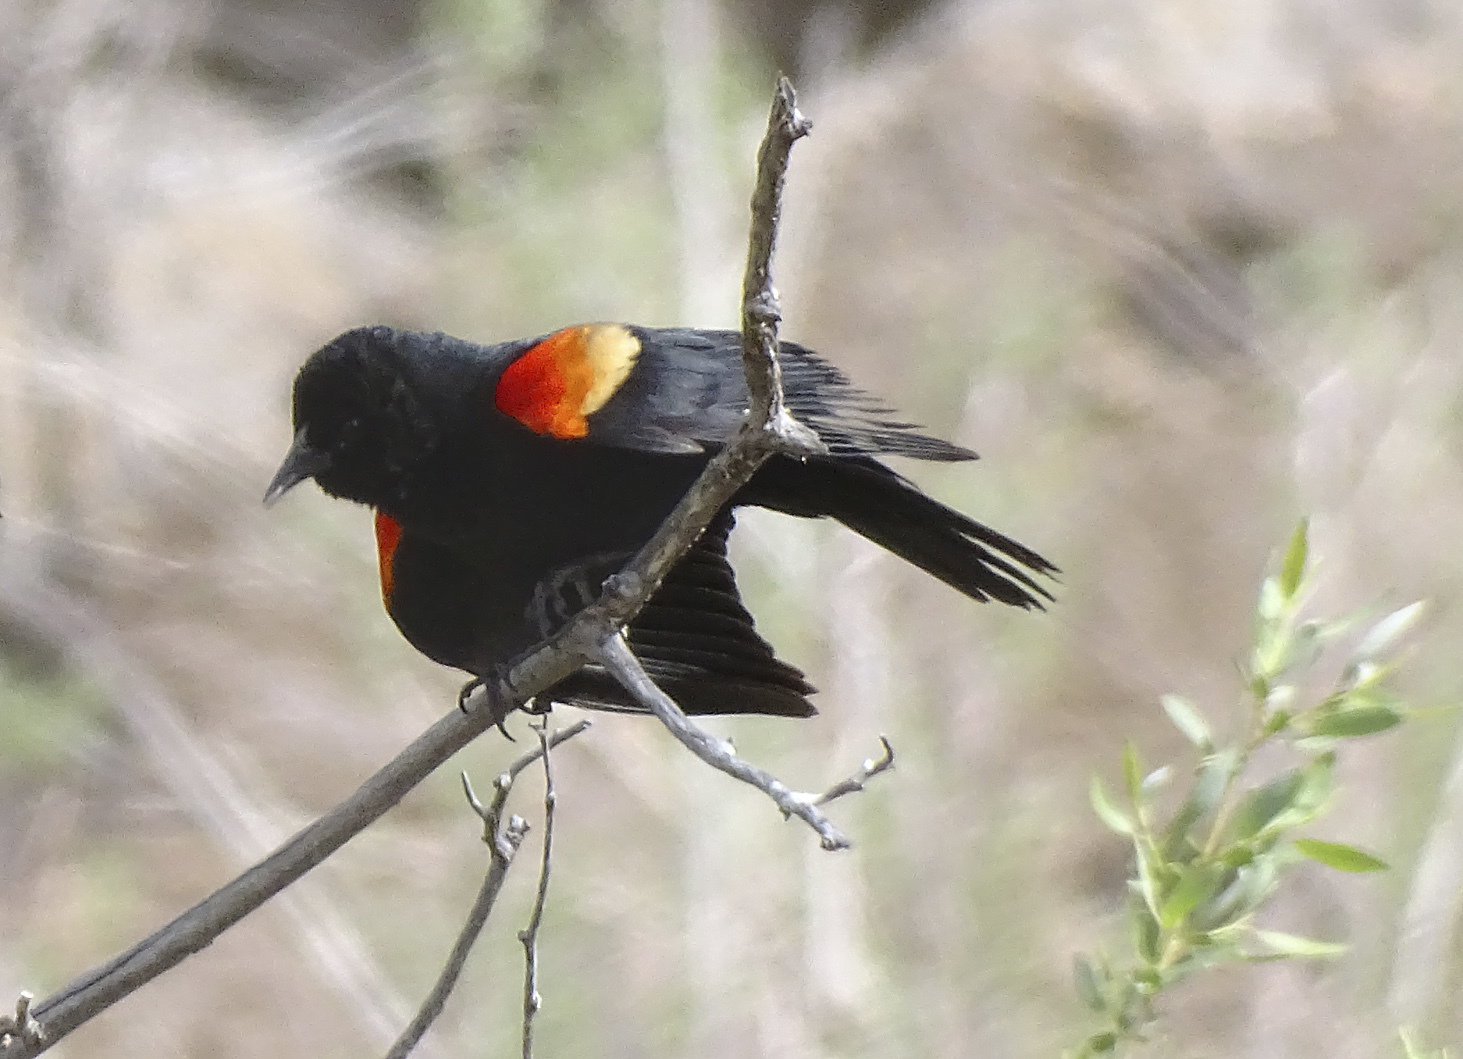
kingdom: Animalia
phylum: Chordata
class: Aves
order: Passeriformes
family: Icteridae
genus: Agelaius
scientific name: Agelaius phoeniceus
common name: Red-winged blackbird
